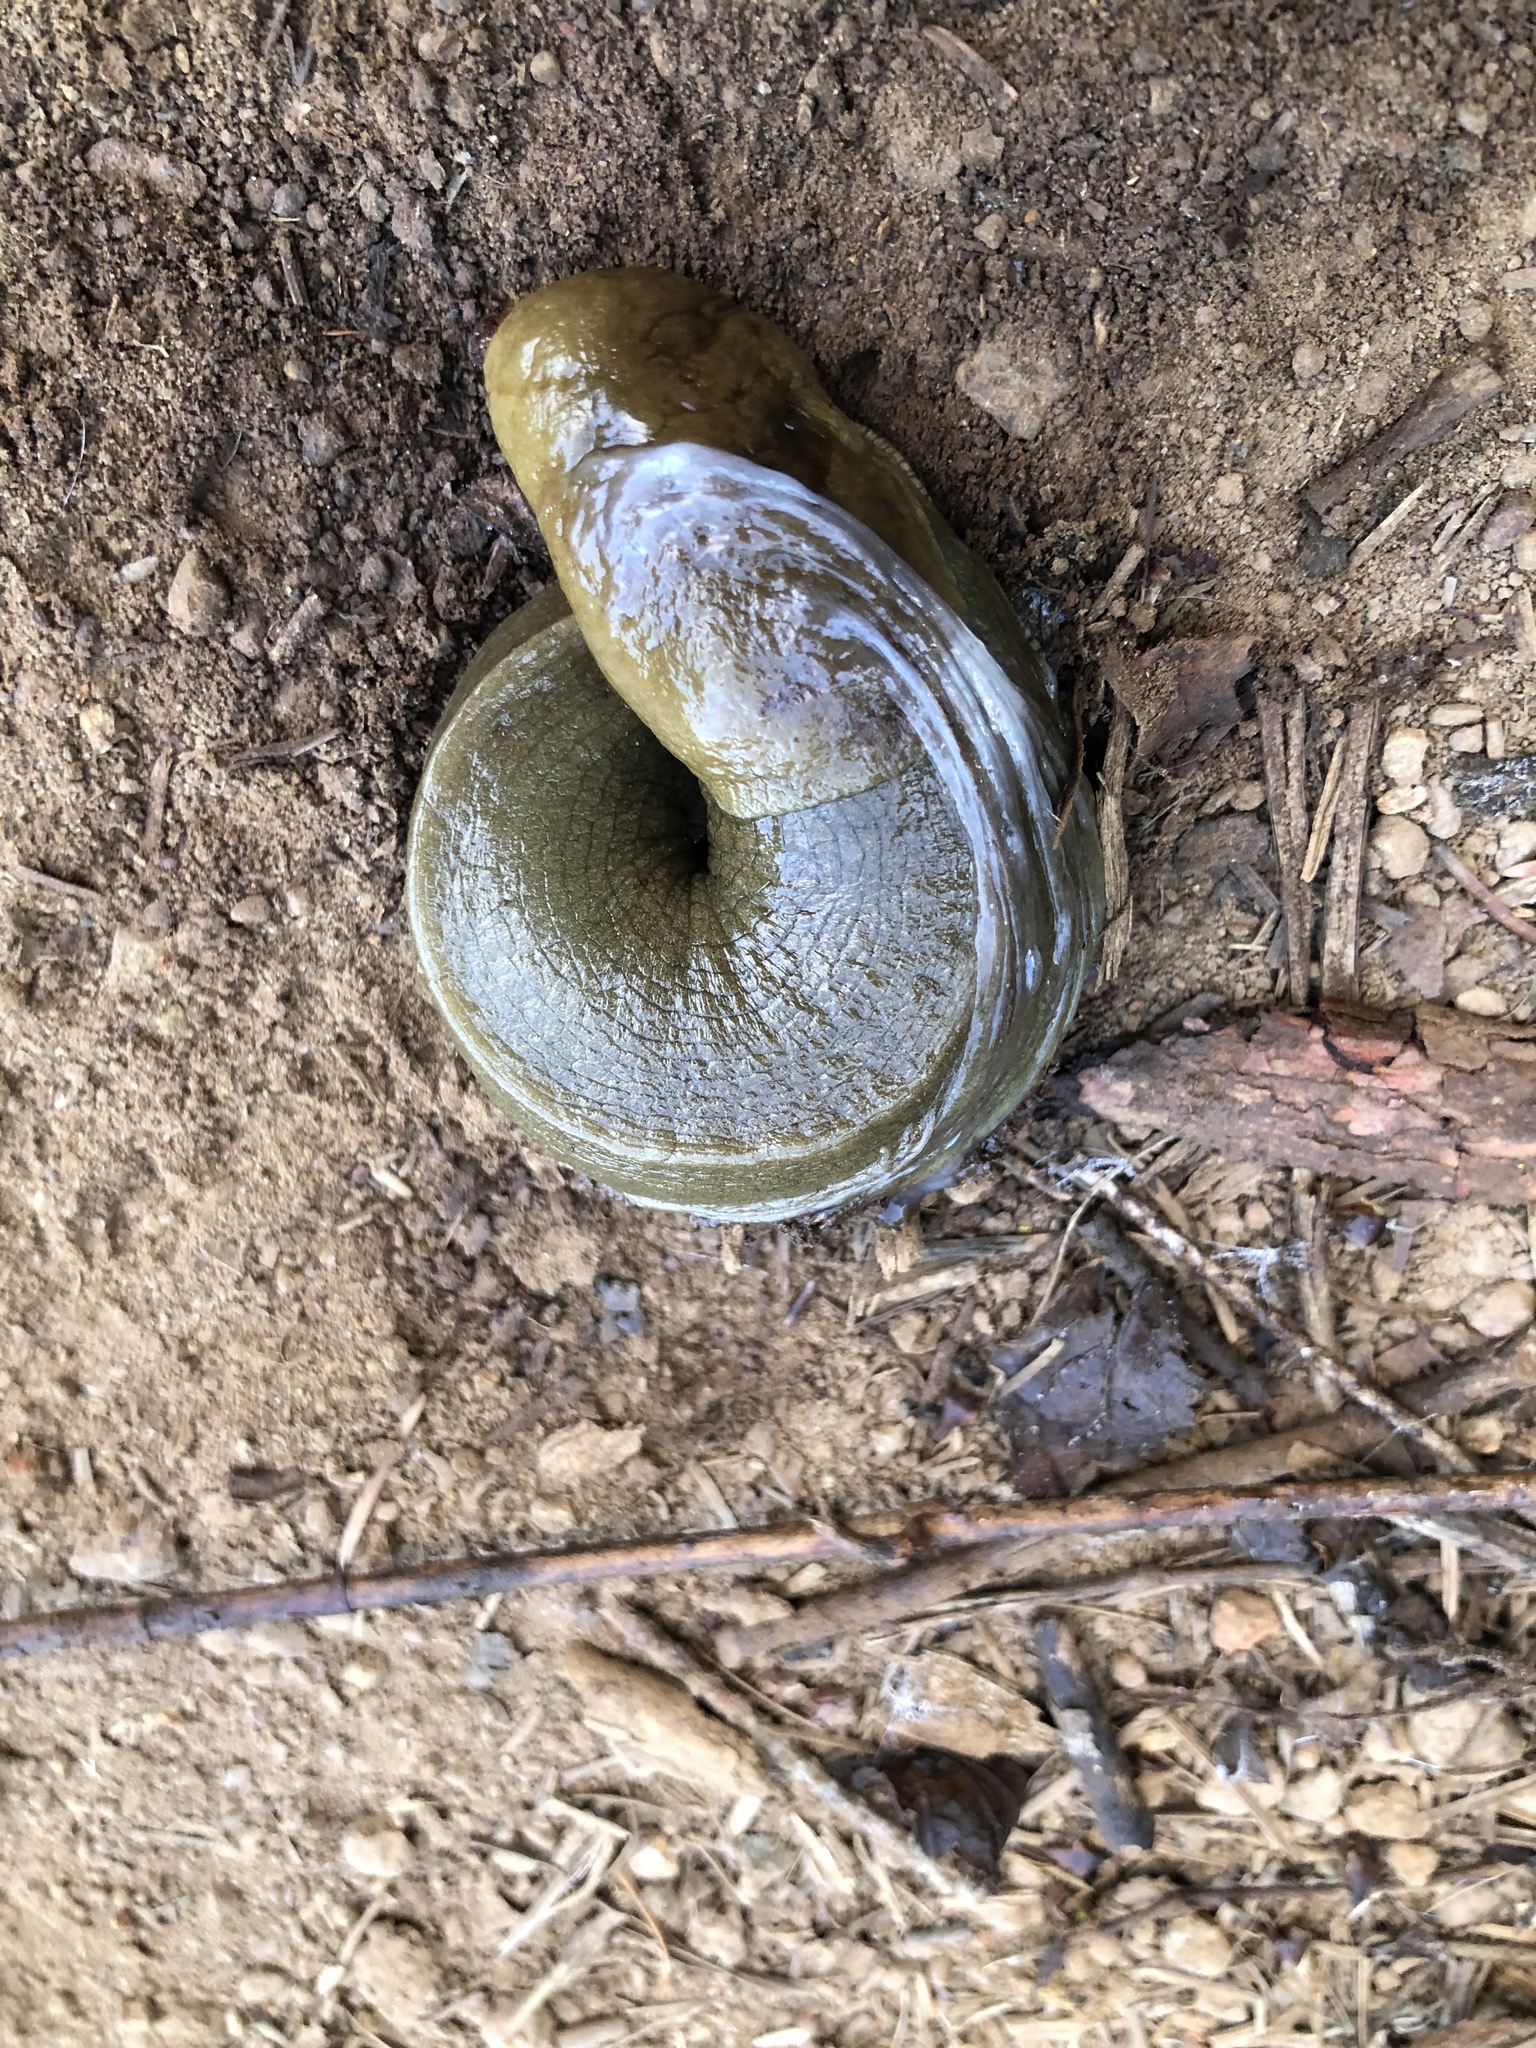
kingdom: Animalia
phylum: Mollusca
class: Gastropoda
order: Stylommatophora
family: Ariolimacidae
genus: Ariolimax
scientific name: Ariolimax columbianus
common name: Pacific banana slug
